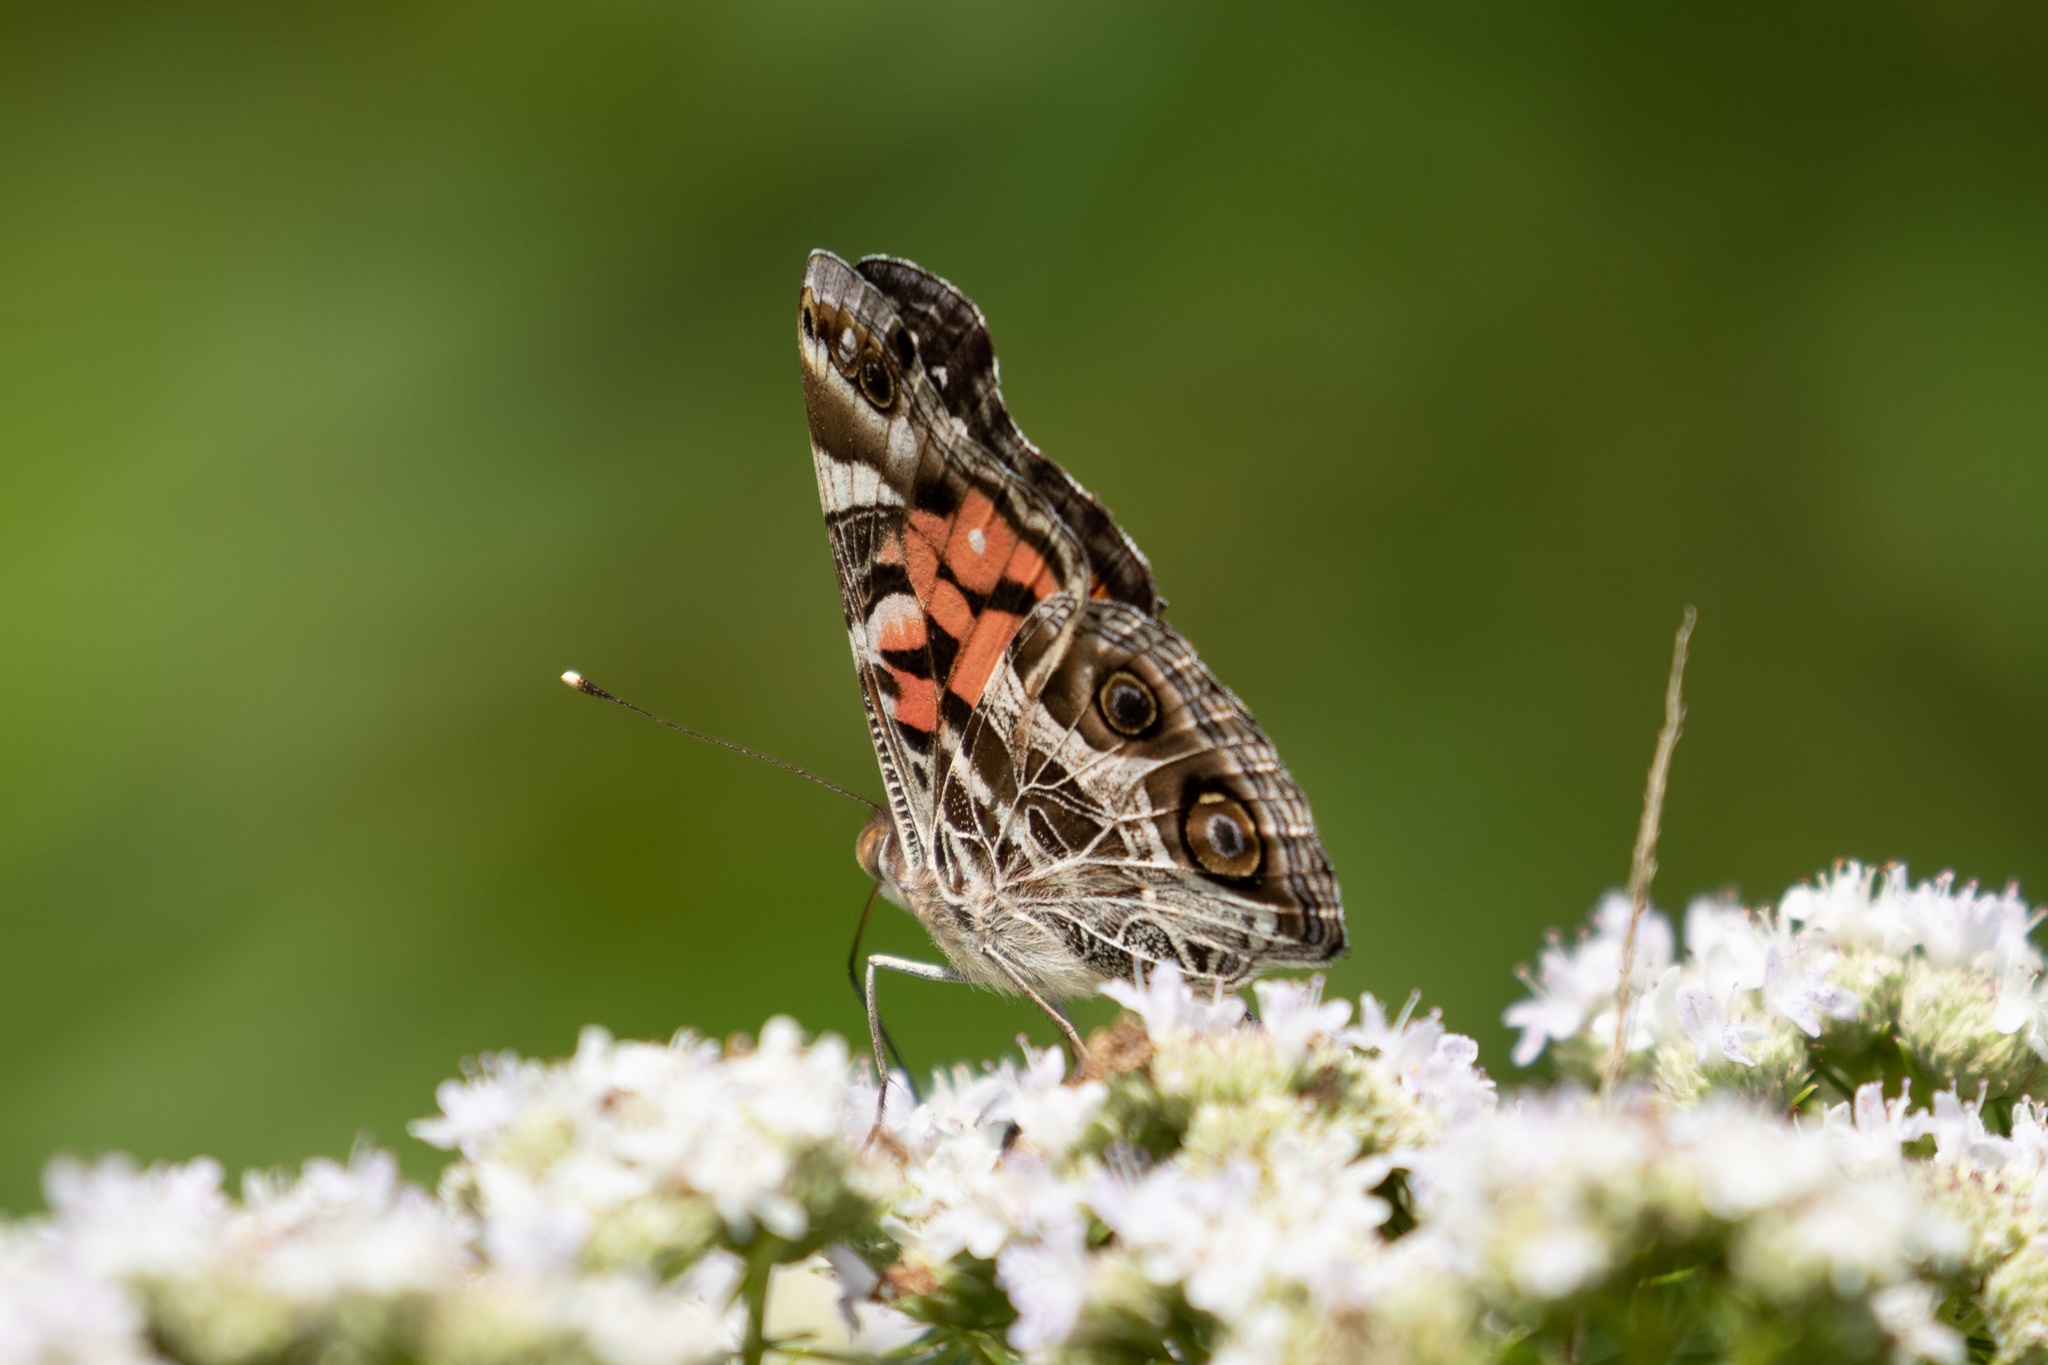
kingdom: Animalia
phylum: Arthropoda
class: Insecta
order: Lepidoptera
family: Nymphalidae
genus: Vanessa
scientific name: Vanessa virginiensis
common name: American lady
